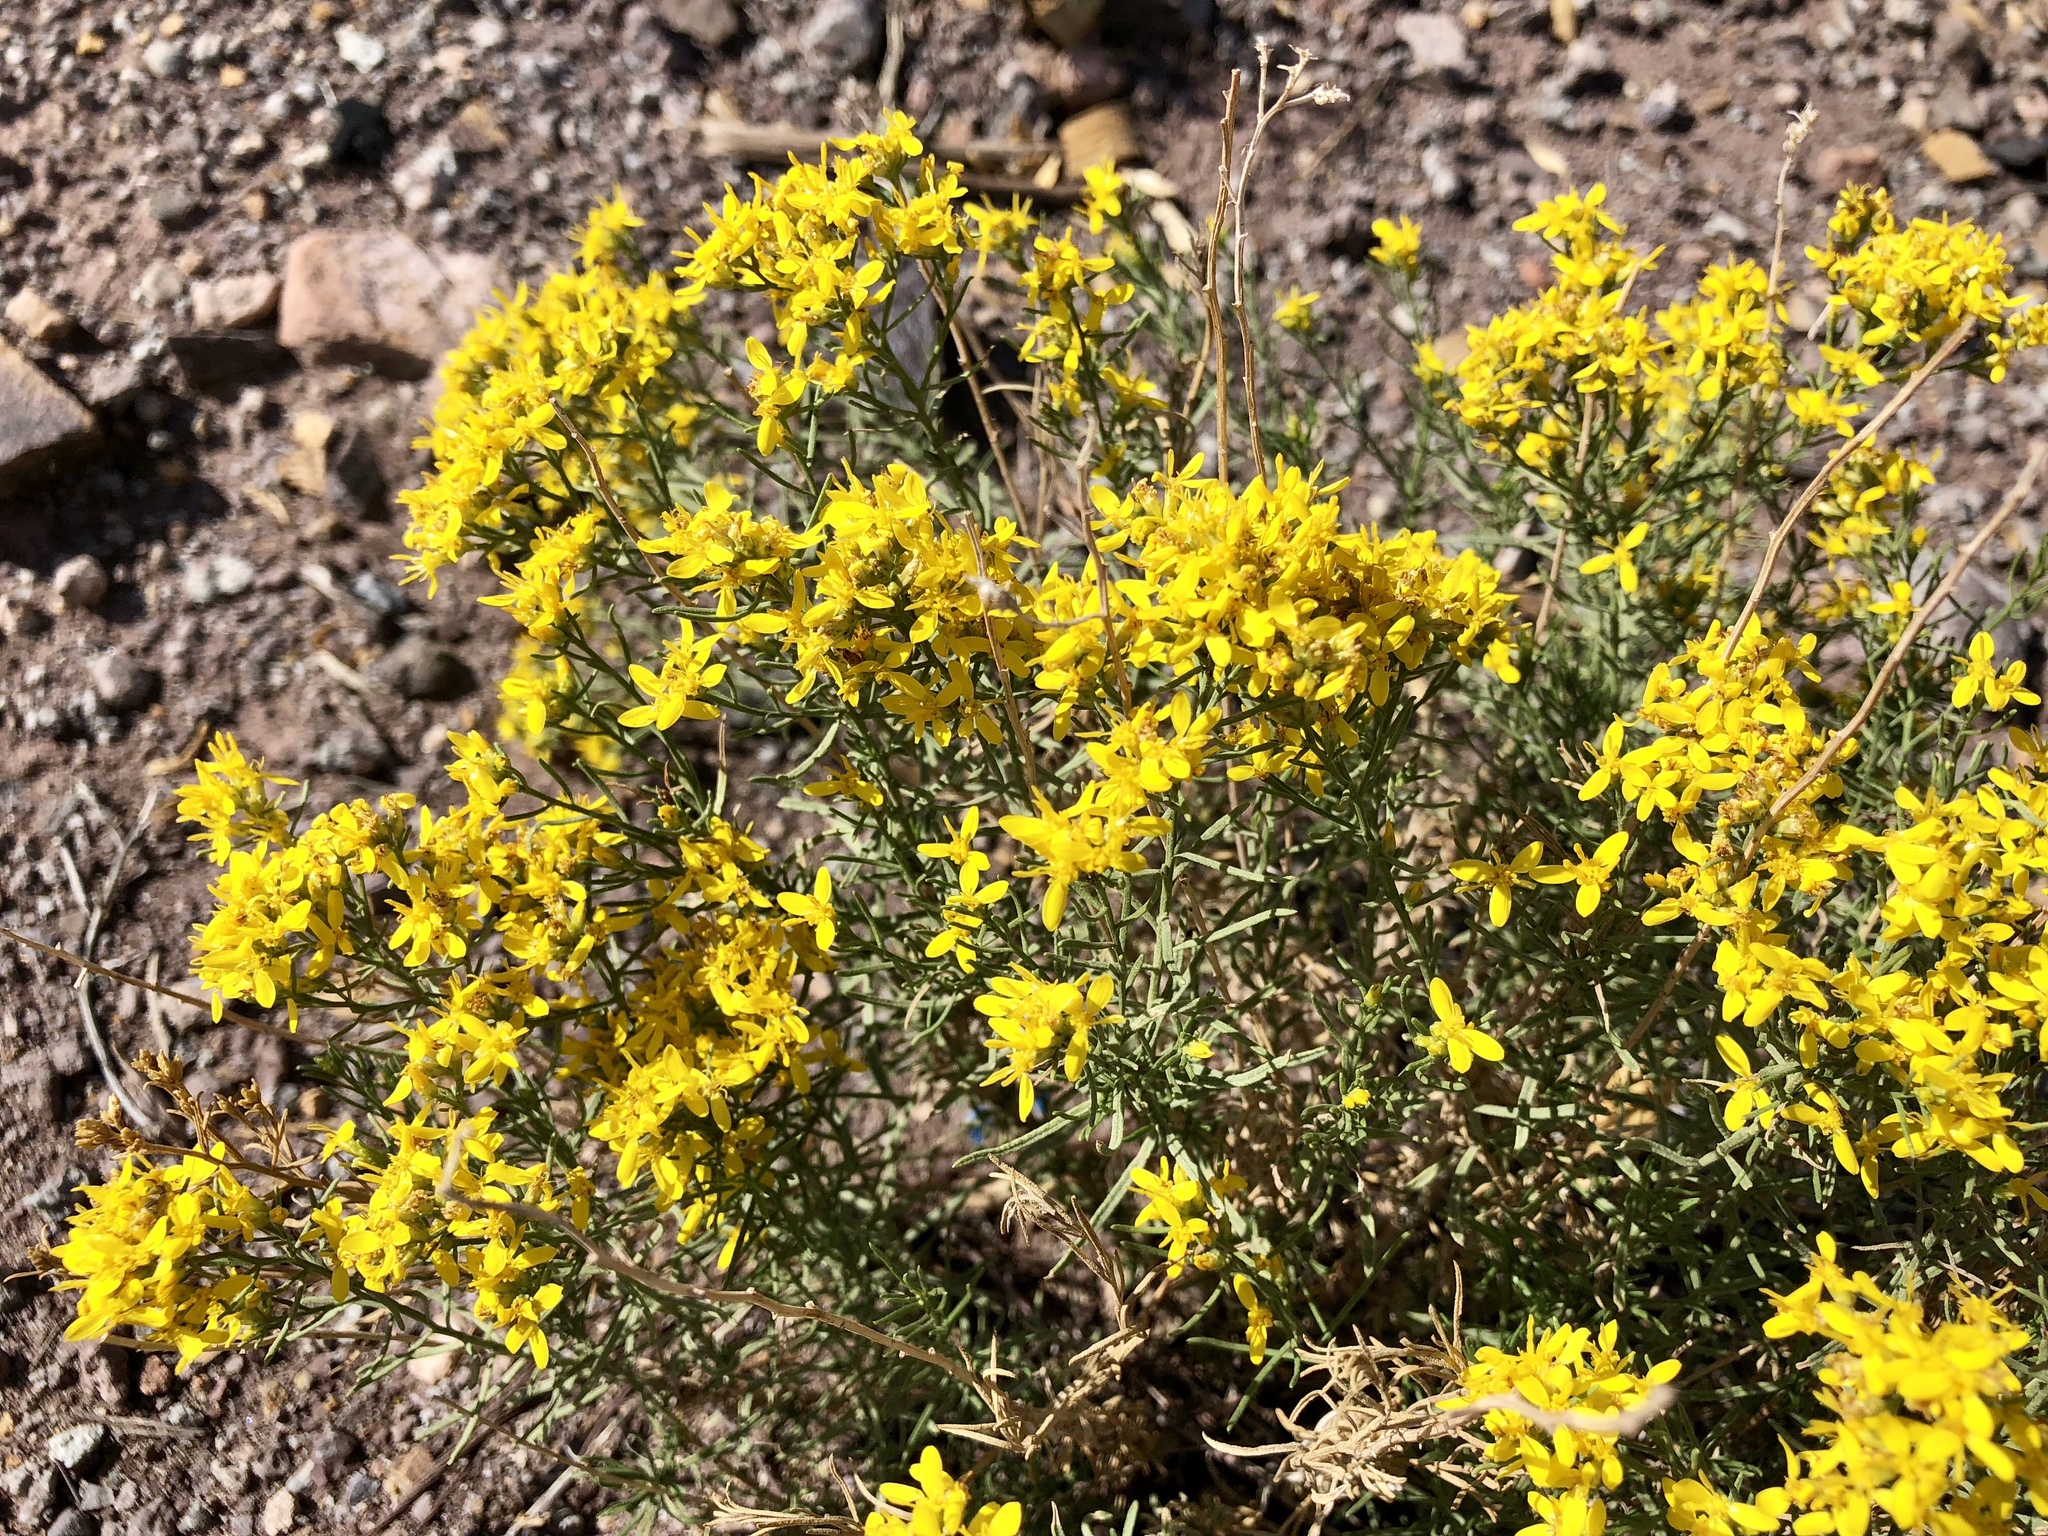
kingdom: Plantae
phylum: Tracheophyta
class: Magnoliopsida
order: Asterales
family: Asteraceae
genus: Gutierrezia
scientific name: Gutierrezia sarothrae
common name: Broom snakeweed
